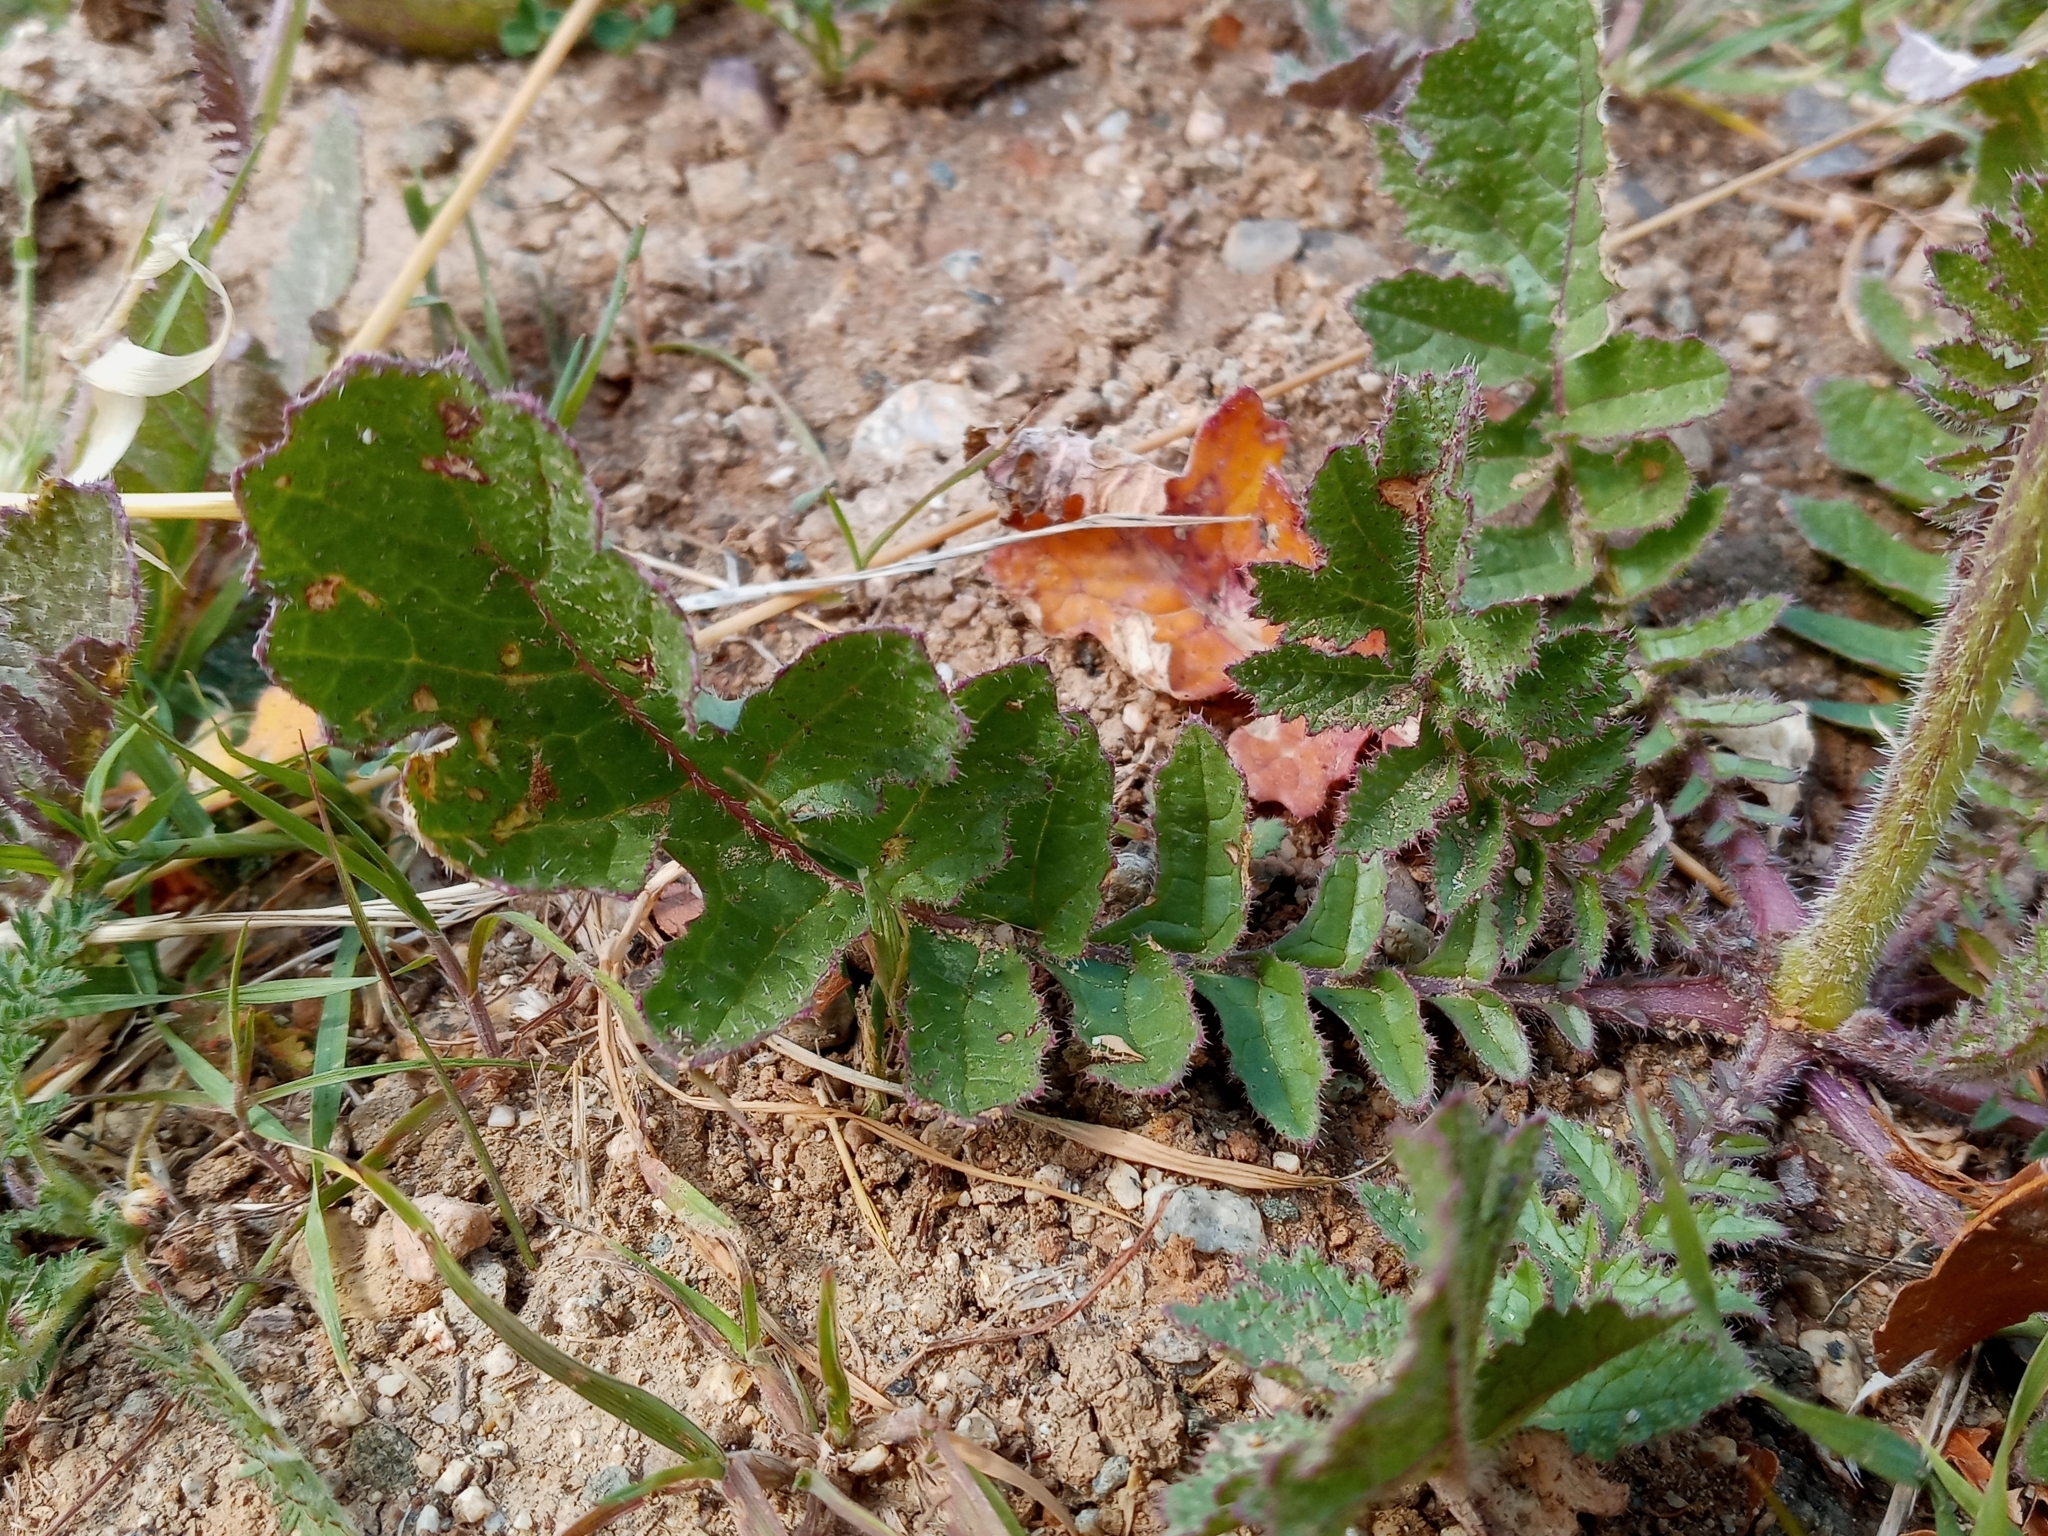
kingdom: Plantae
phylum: Tracheophyta
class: Magnoliopsida
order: Brassicales
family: Brassicaceae
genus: Brassica
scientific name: Brassica tournefortii
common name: Pale cabbage
